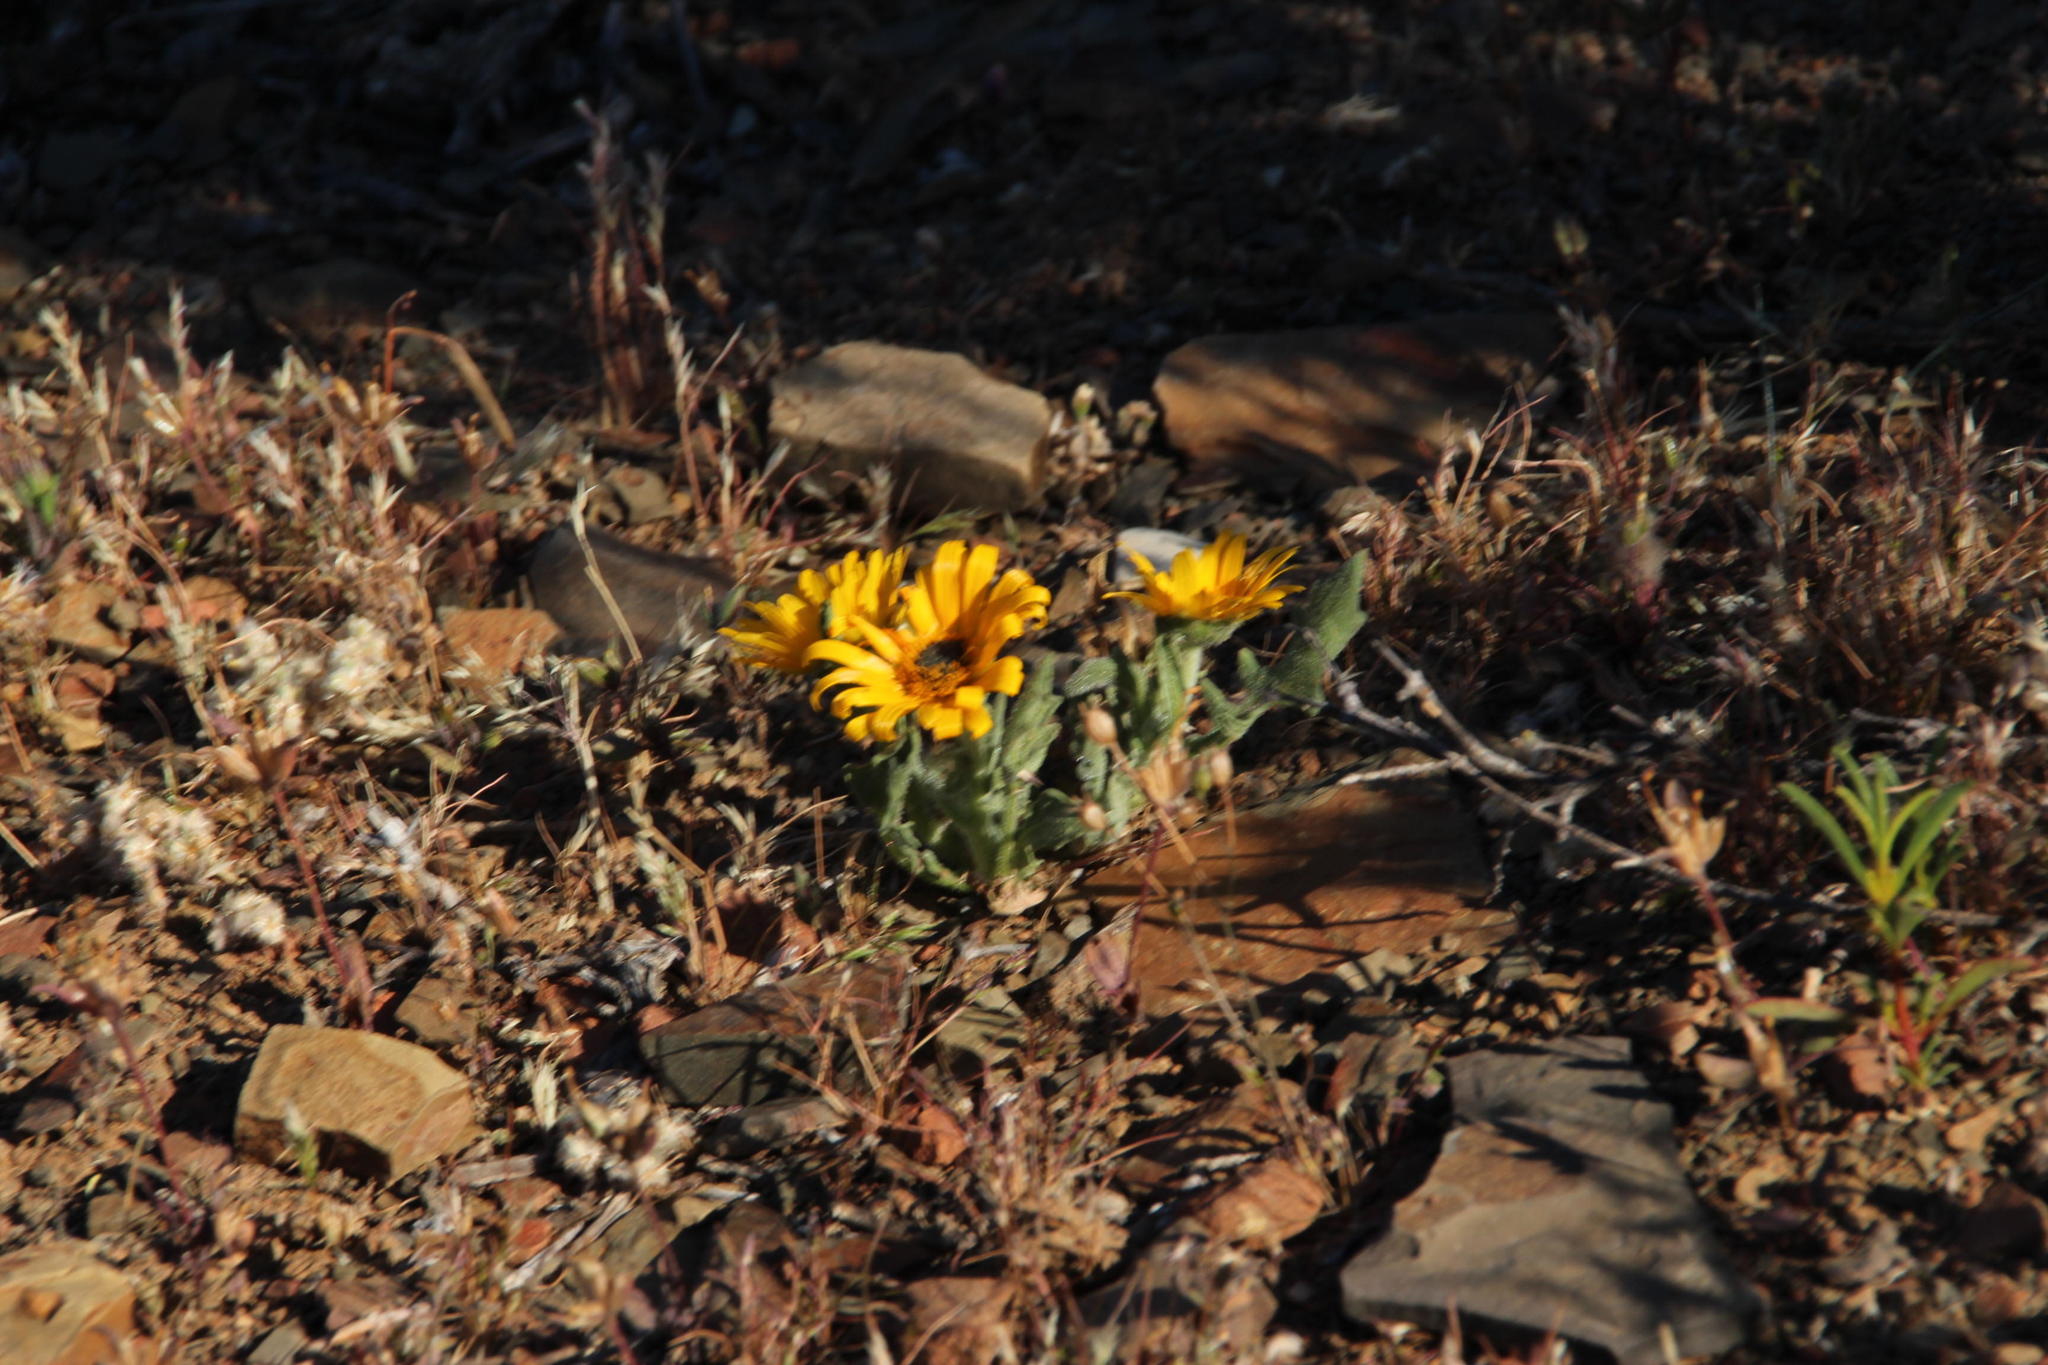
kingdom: Plantae
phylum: Tracheophyta
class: Magnoliopsida
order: Asterales
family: Asteraceae
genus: Arctotis
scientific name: Arctotis hirsuta
